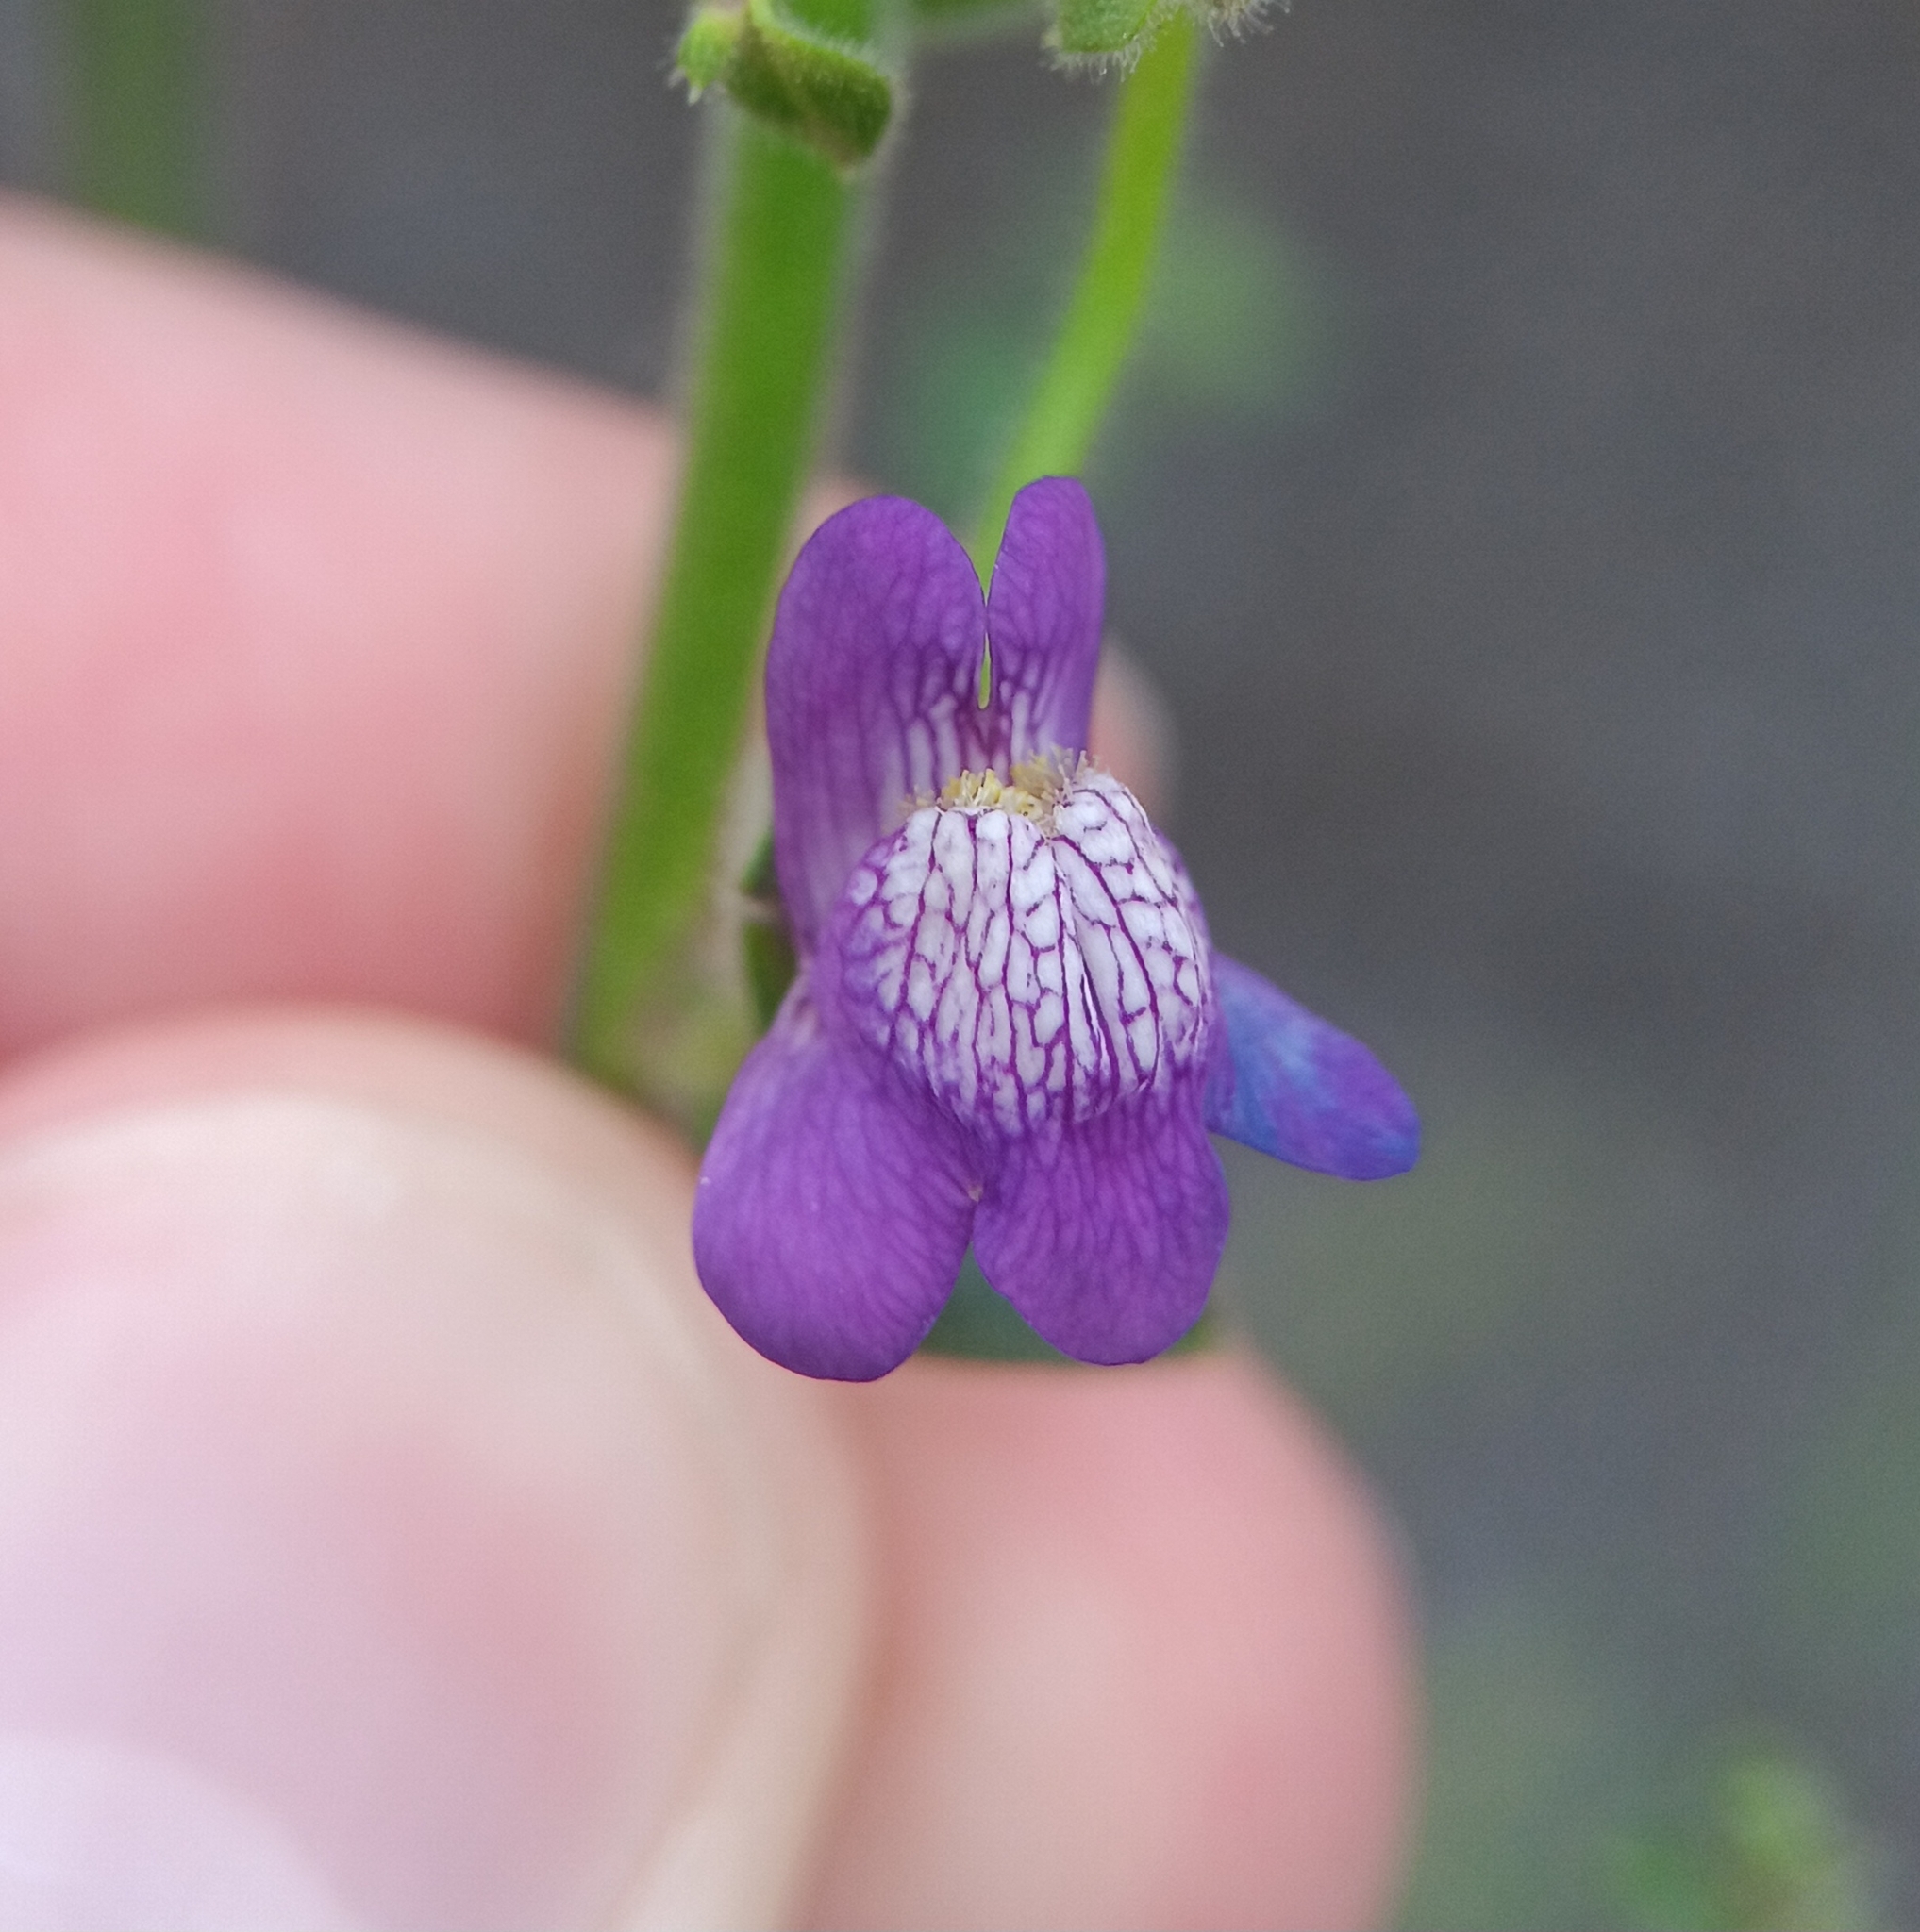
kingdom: Plantae
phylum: Tracheophyta
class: Magnoliopsida
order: Lamiales
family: Plantaginaceae
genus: Sairocarpus
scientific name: Sairocarpus nuttallianus
